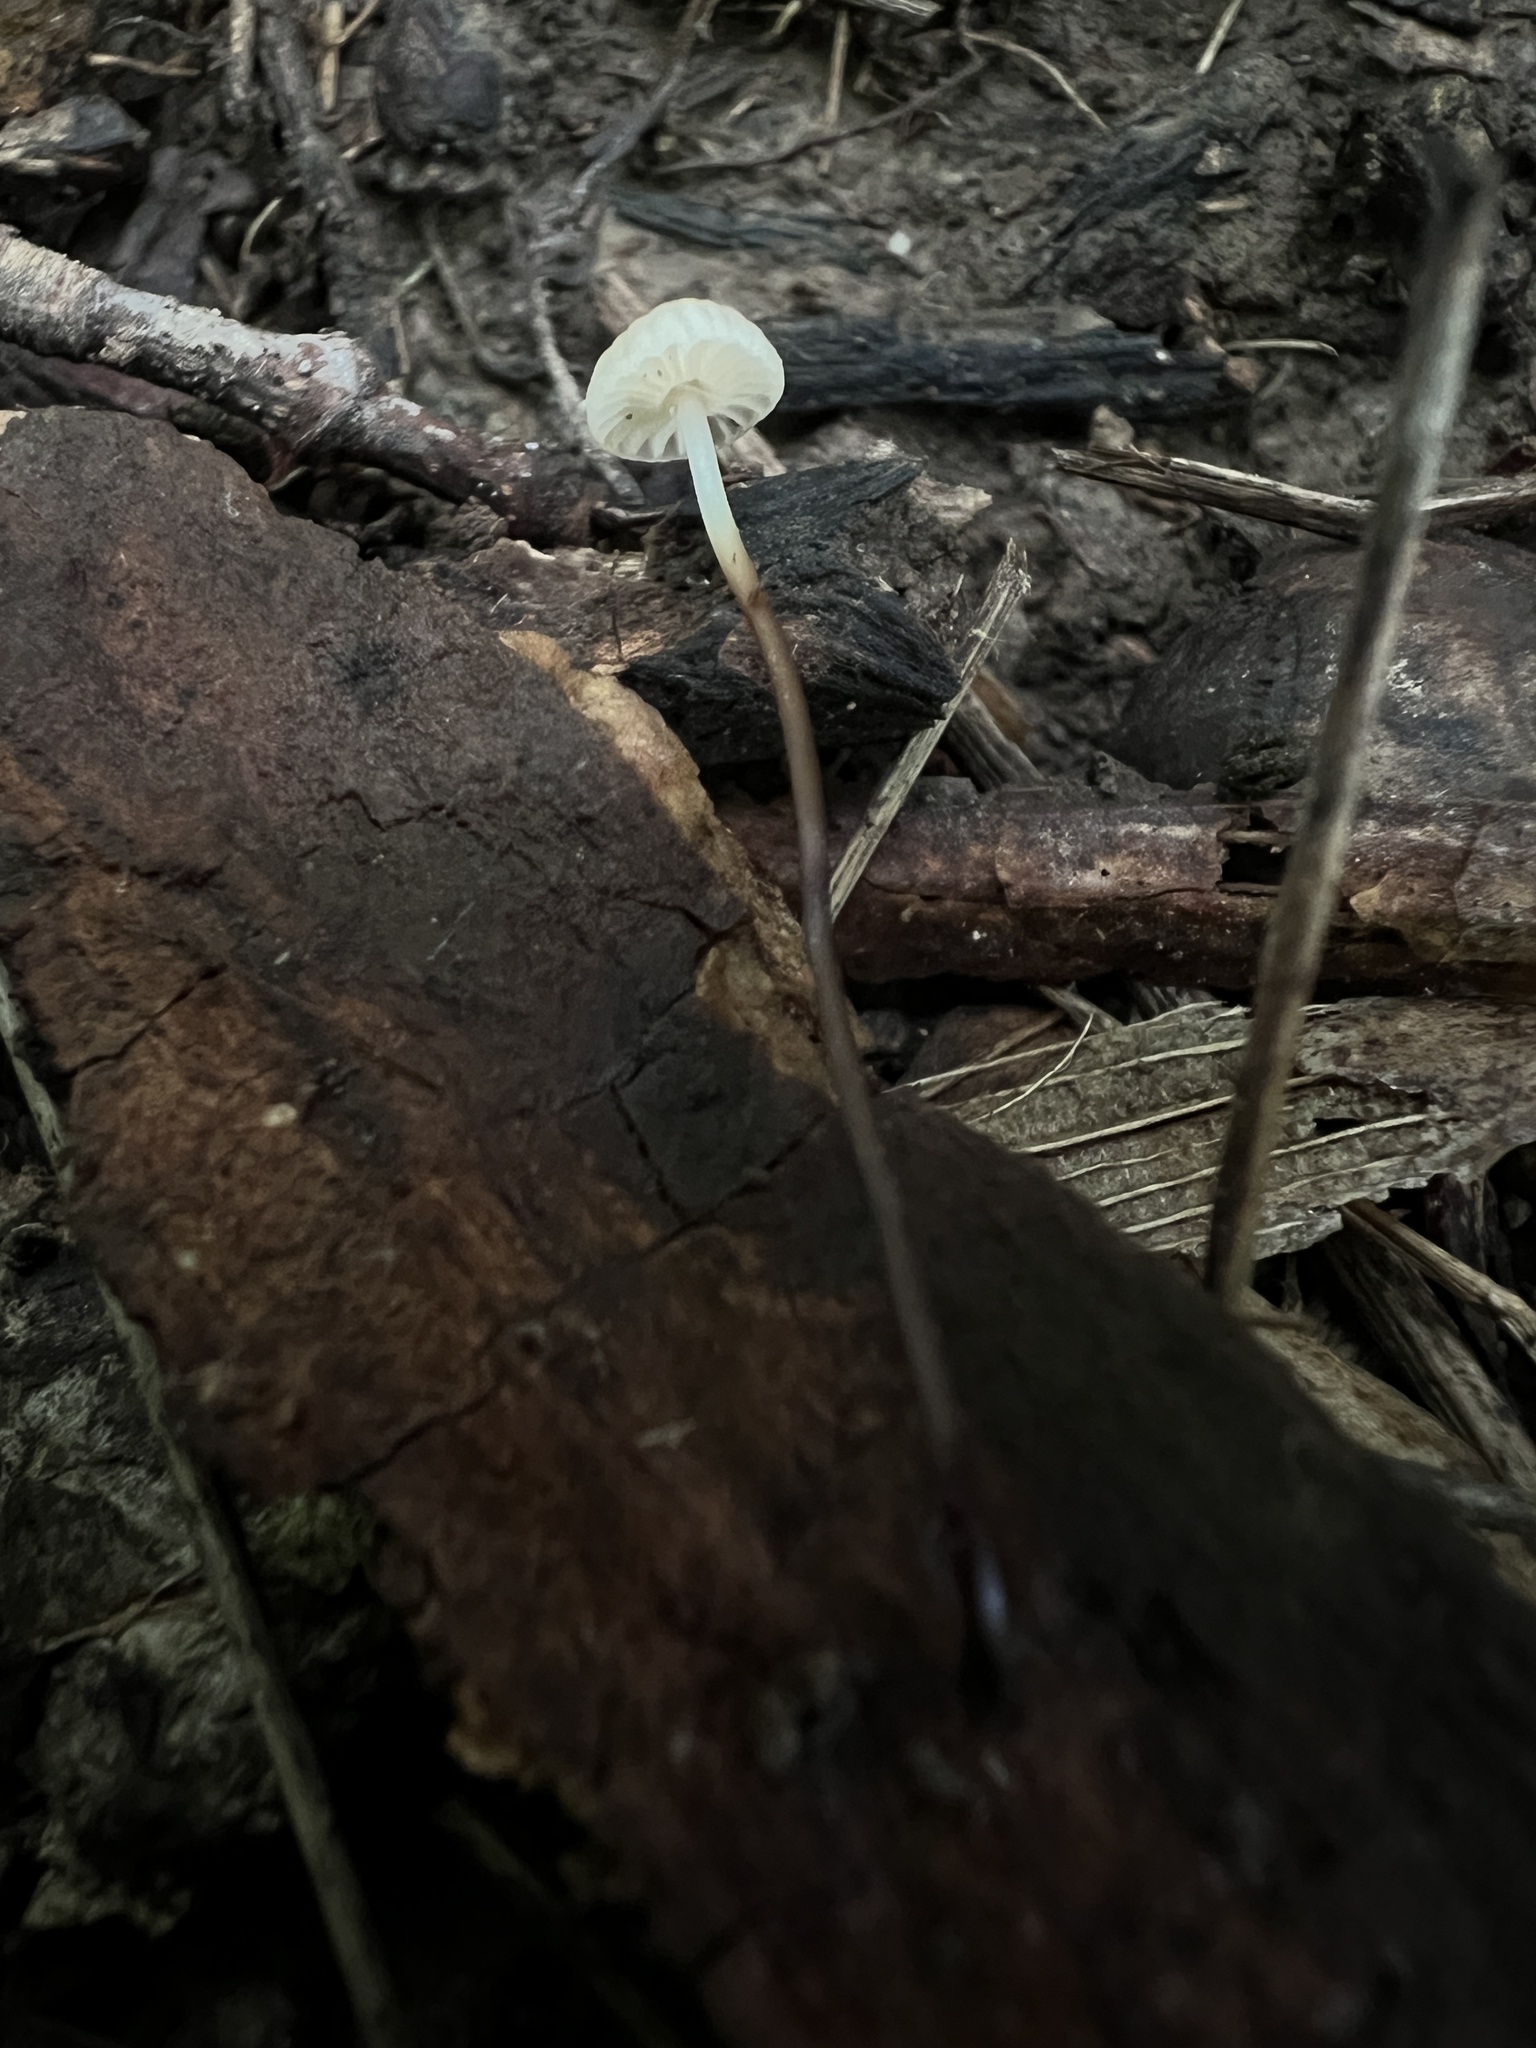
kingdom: Fungi
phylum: Basidiomycota
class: Agaricomycetes
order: Agaricales
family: Marasmiaceae
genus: Marasmius
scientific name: Marasmius rotula
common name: Collared parachute
